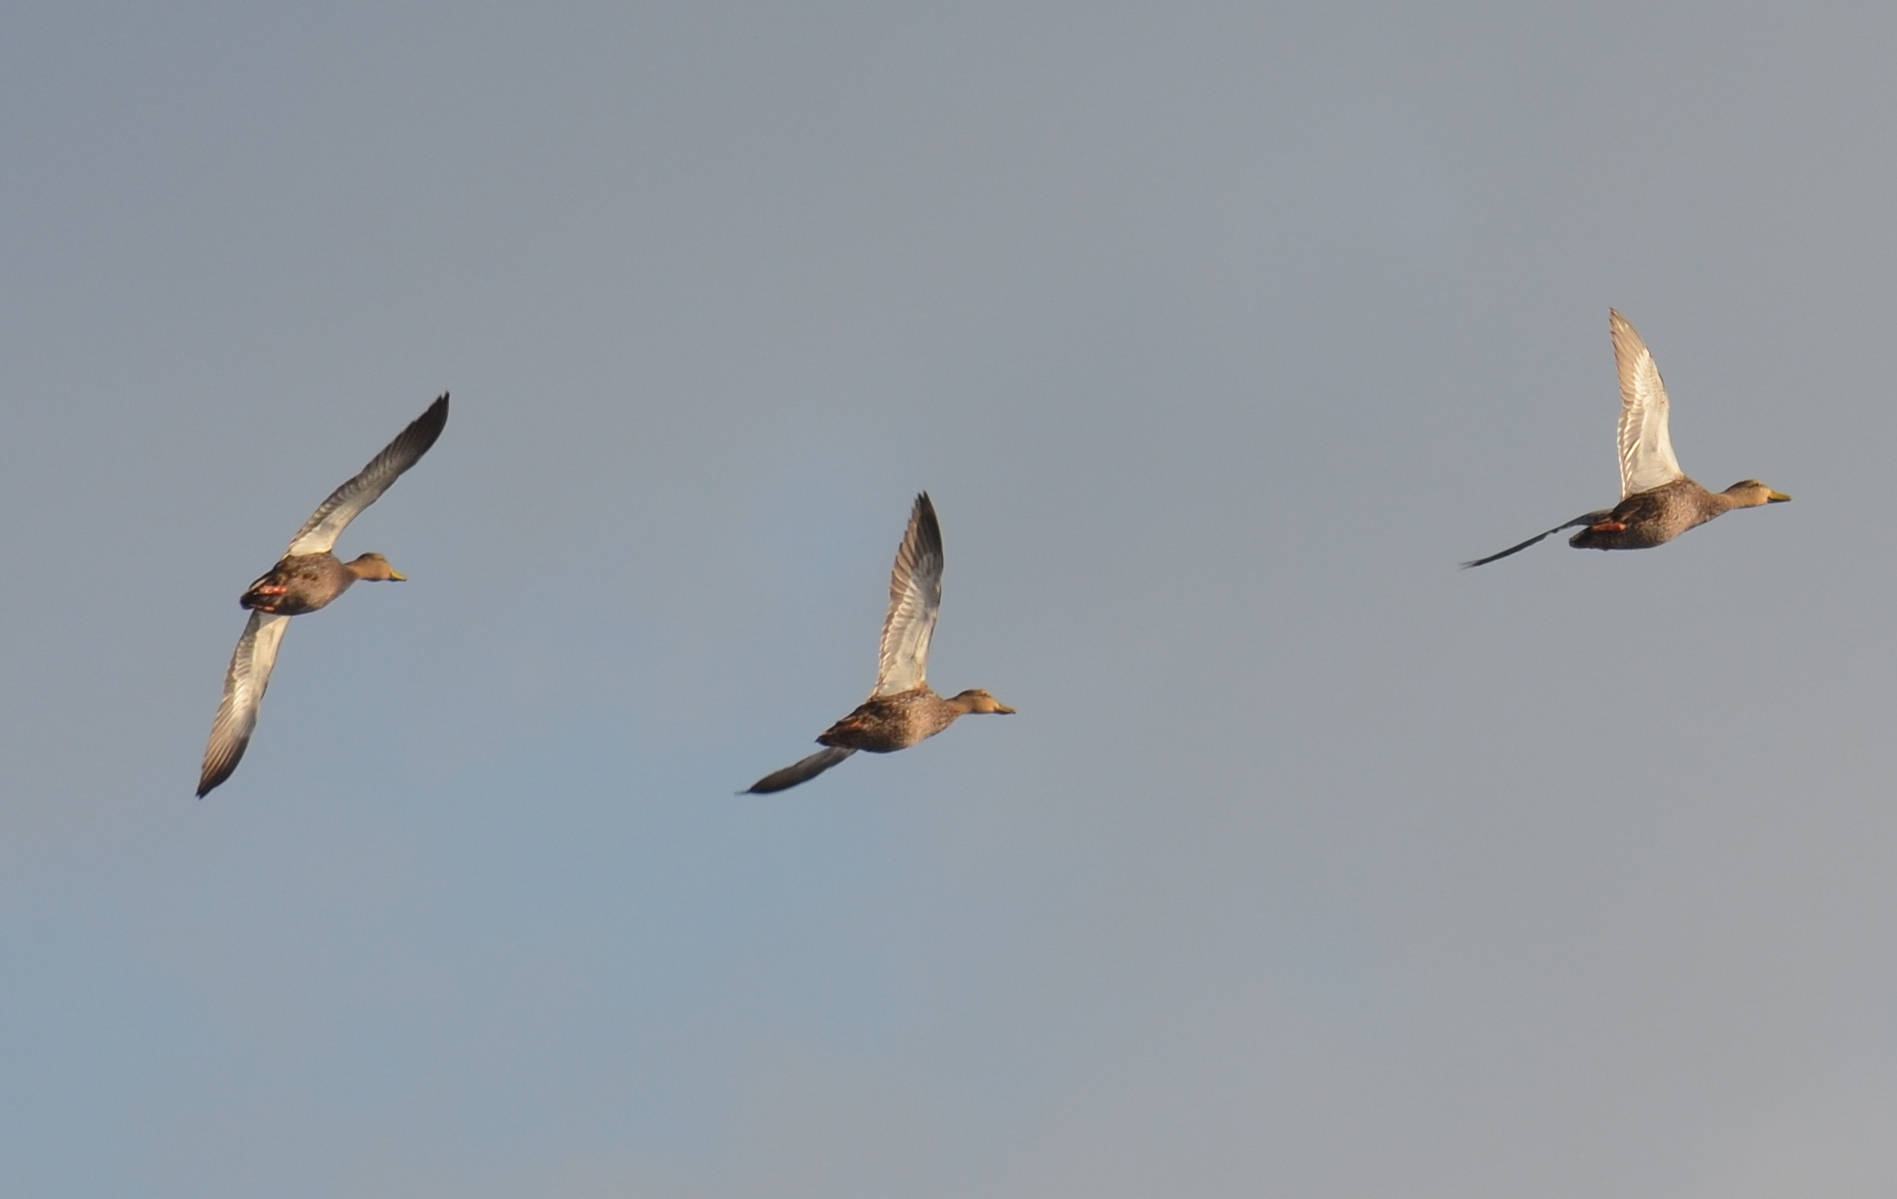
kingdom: Animalia
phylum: Chordata
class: Aves
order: Anseriformes
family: Anatidae
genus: Anas
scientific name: Anas fulvigula
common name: Mottled duck
